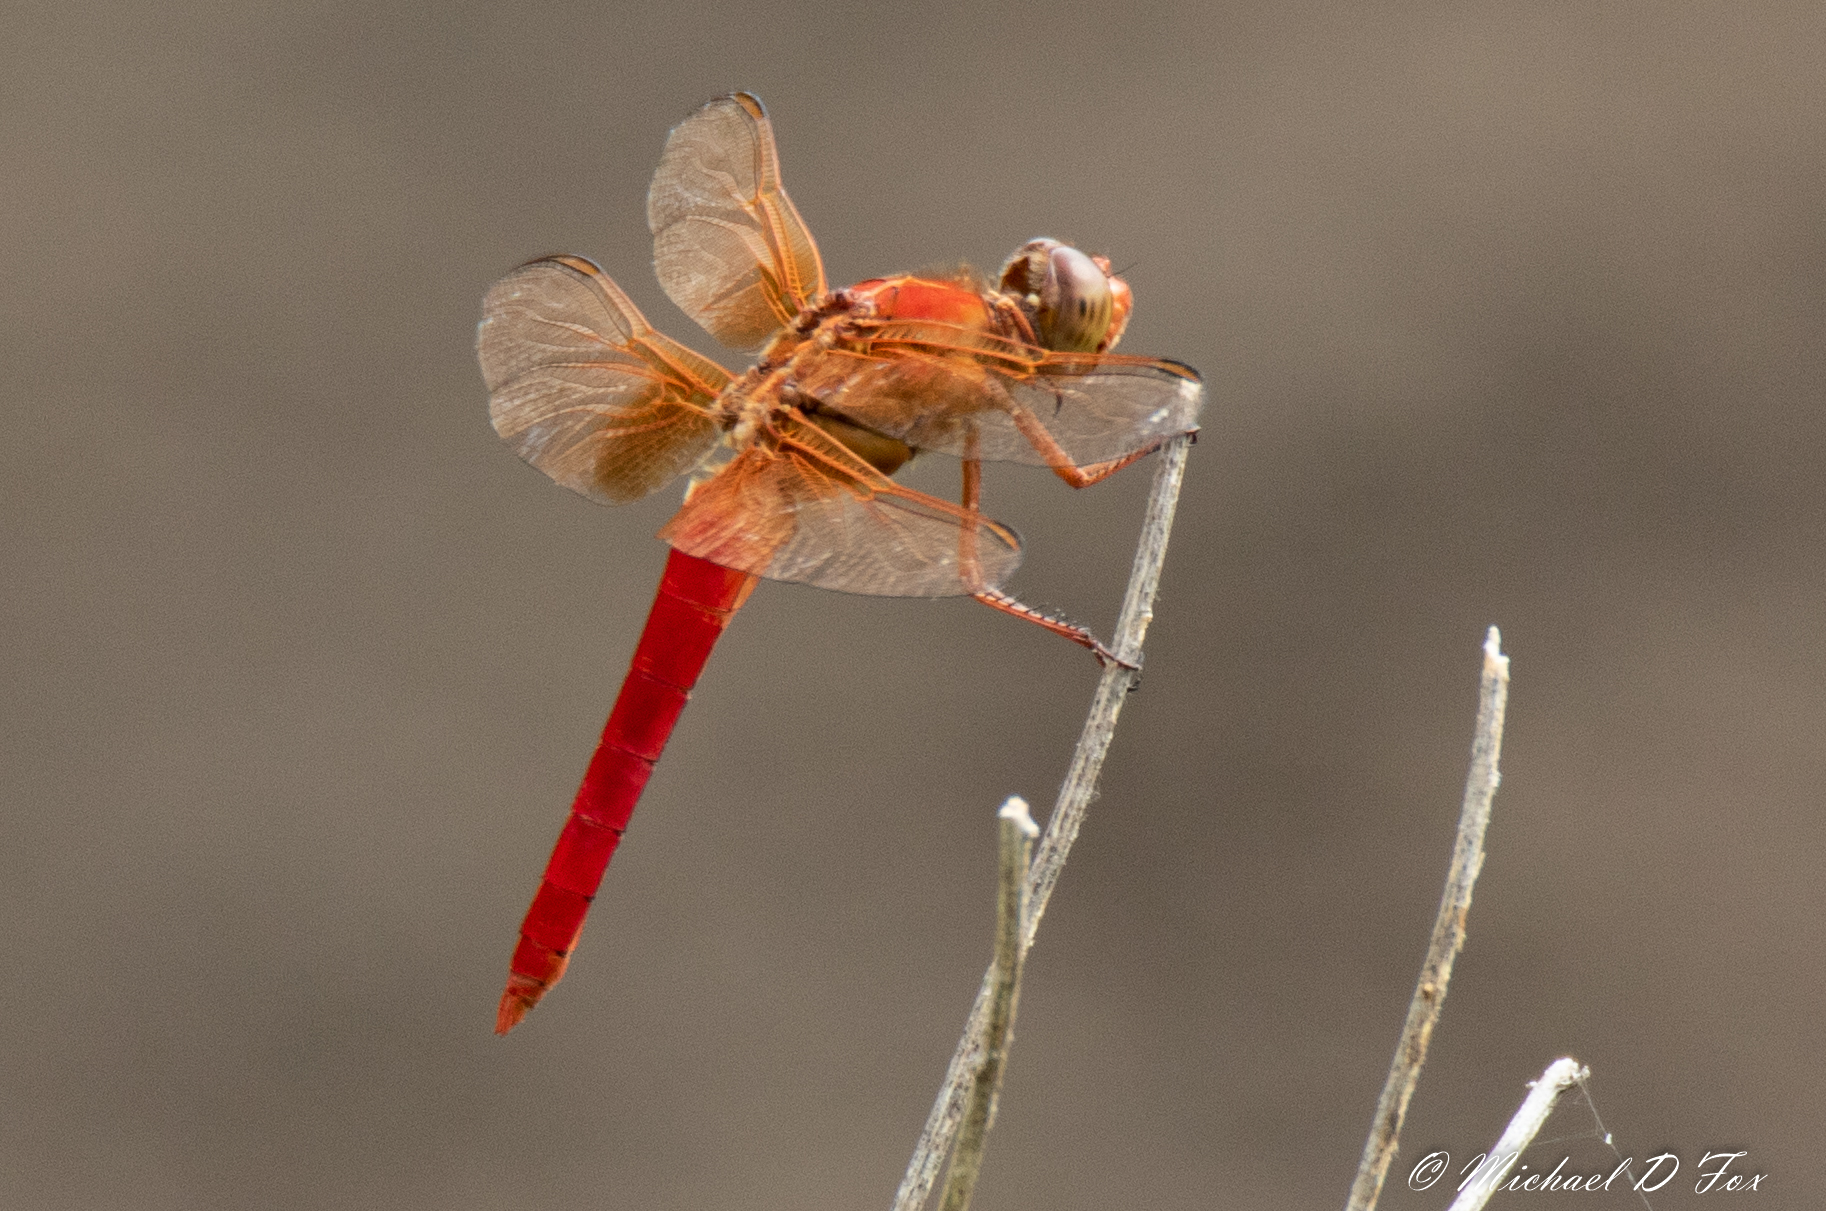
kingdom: Animalia
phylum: Arthropoda
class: Insecta
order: Odonata
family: Libellulidae
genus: Libellula
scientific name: Libellula croceipennis
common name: Neon skimmer
